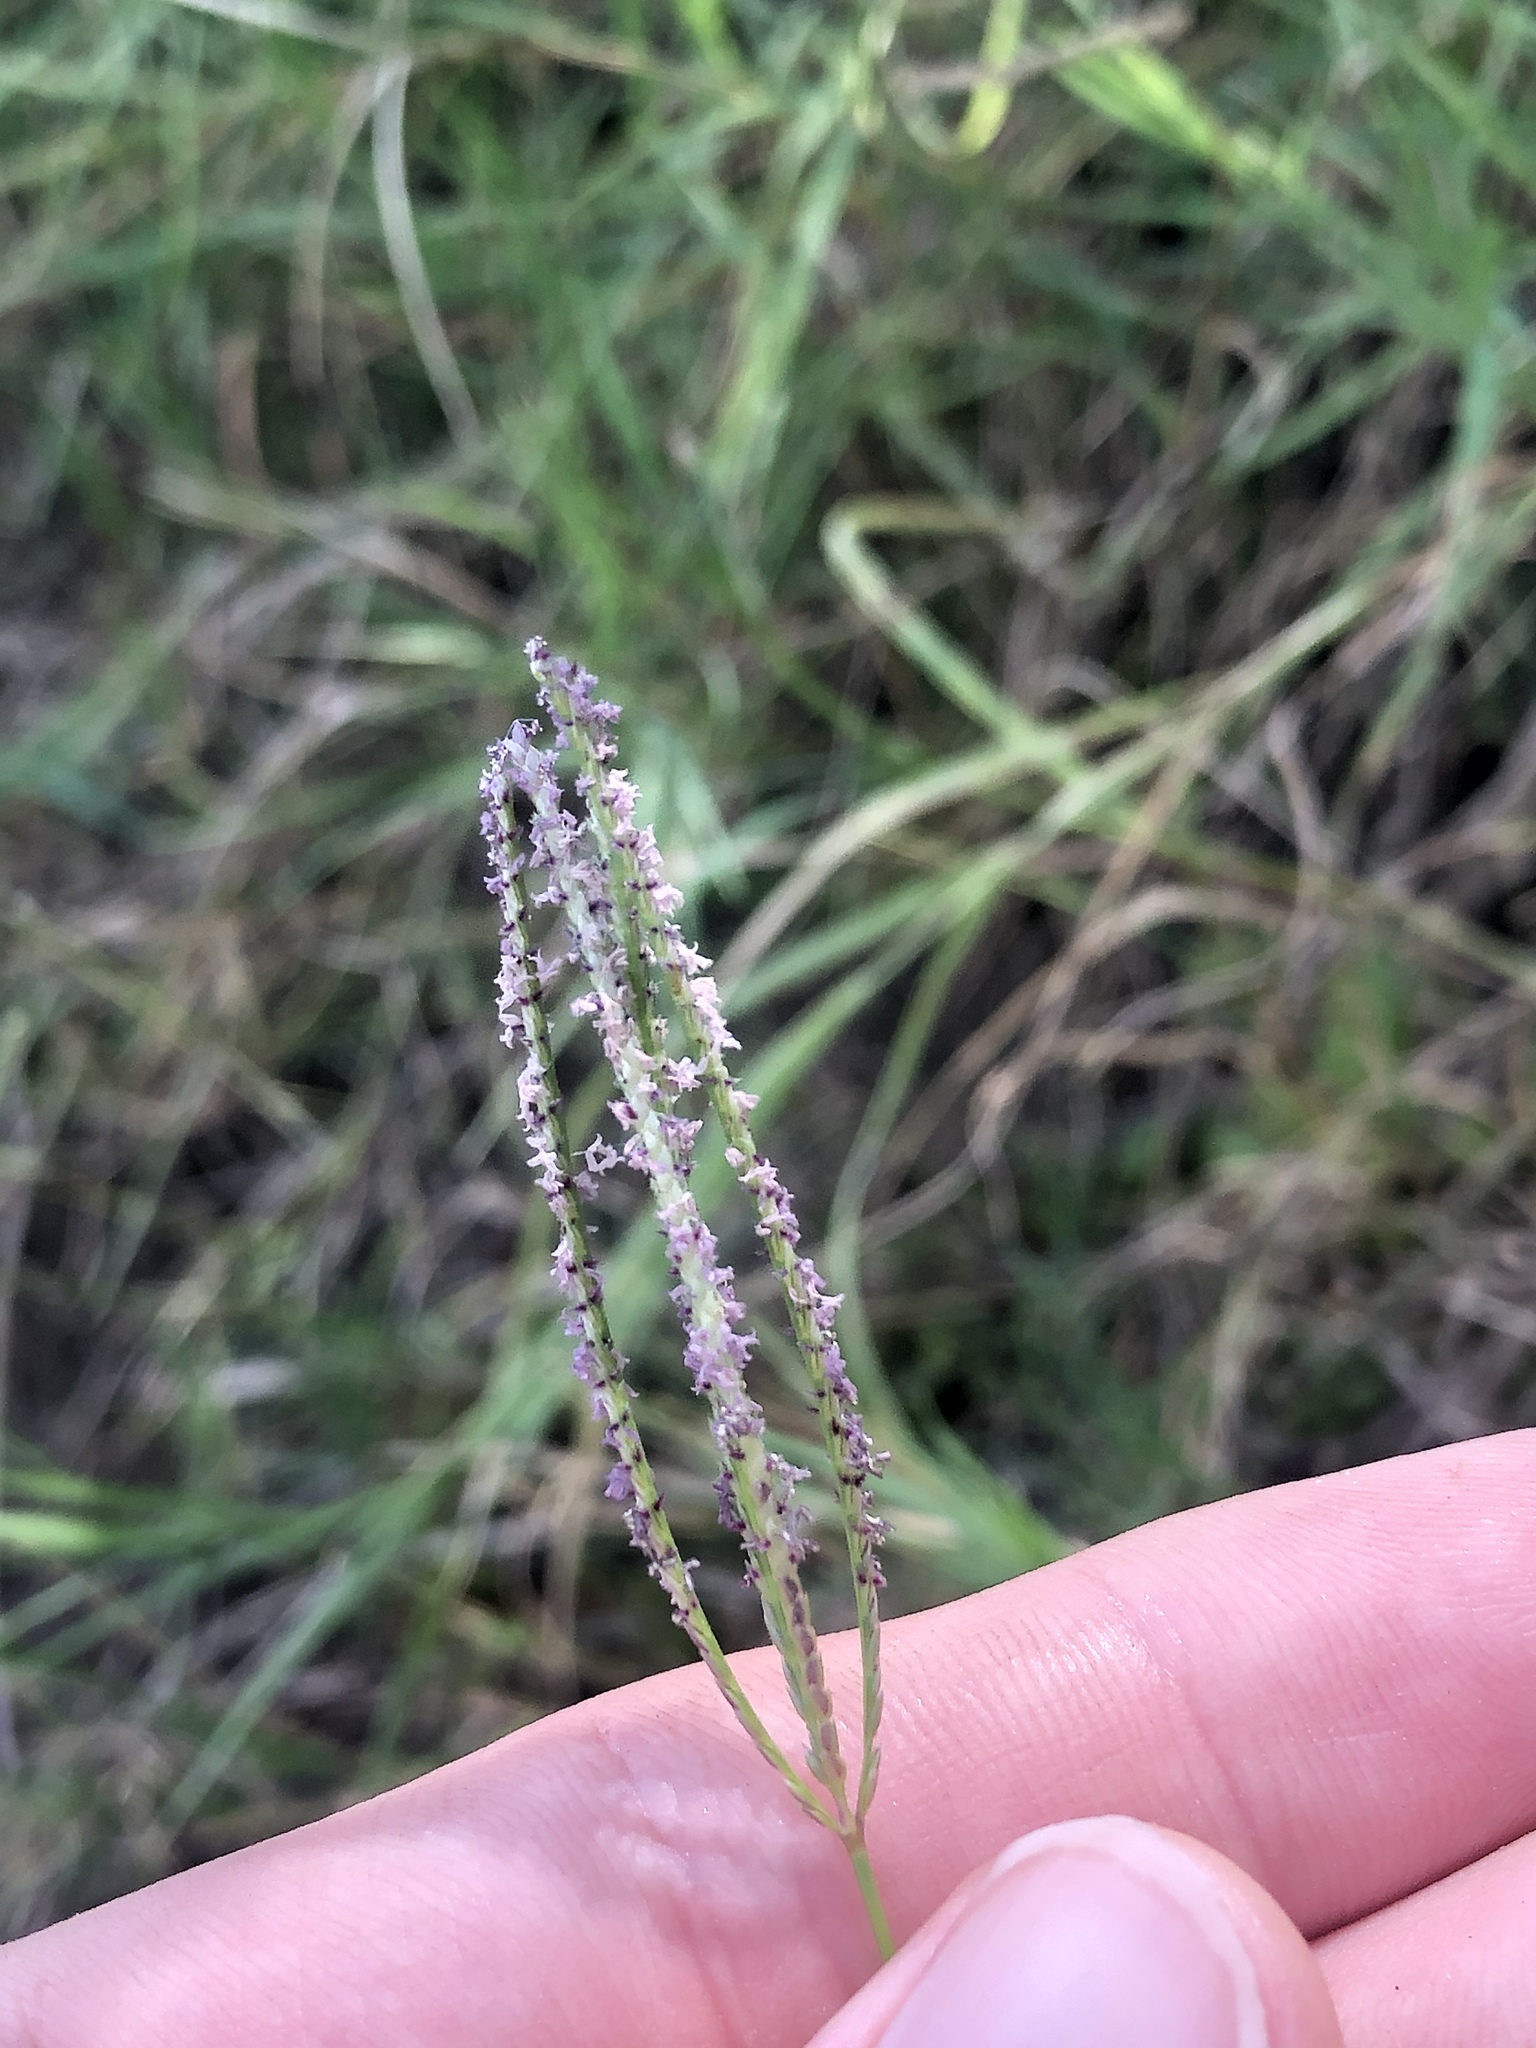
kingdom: Plantae
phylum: Tracheophyta
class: Liliopsida
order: Poales
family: Poaceae
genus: Cynodon
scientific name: Cynodon dactylon
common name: Bermuda grass
